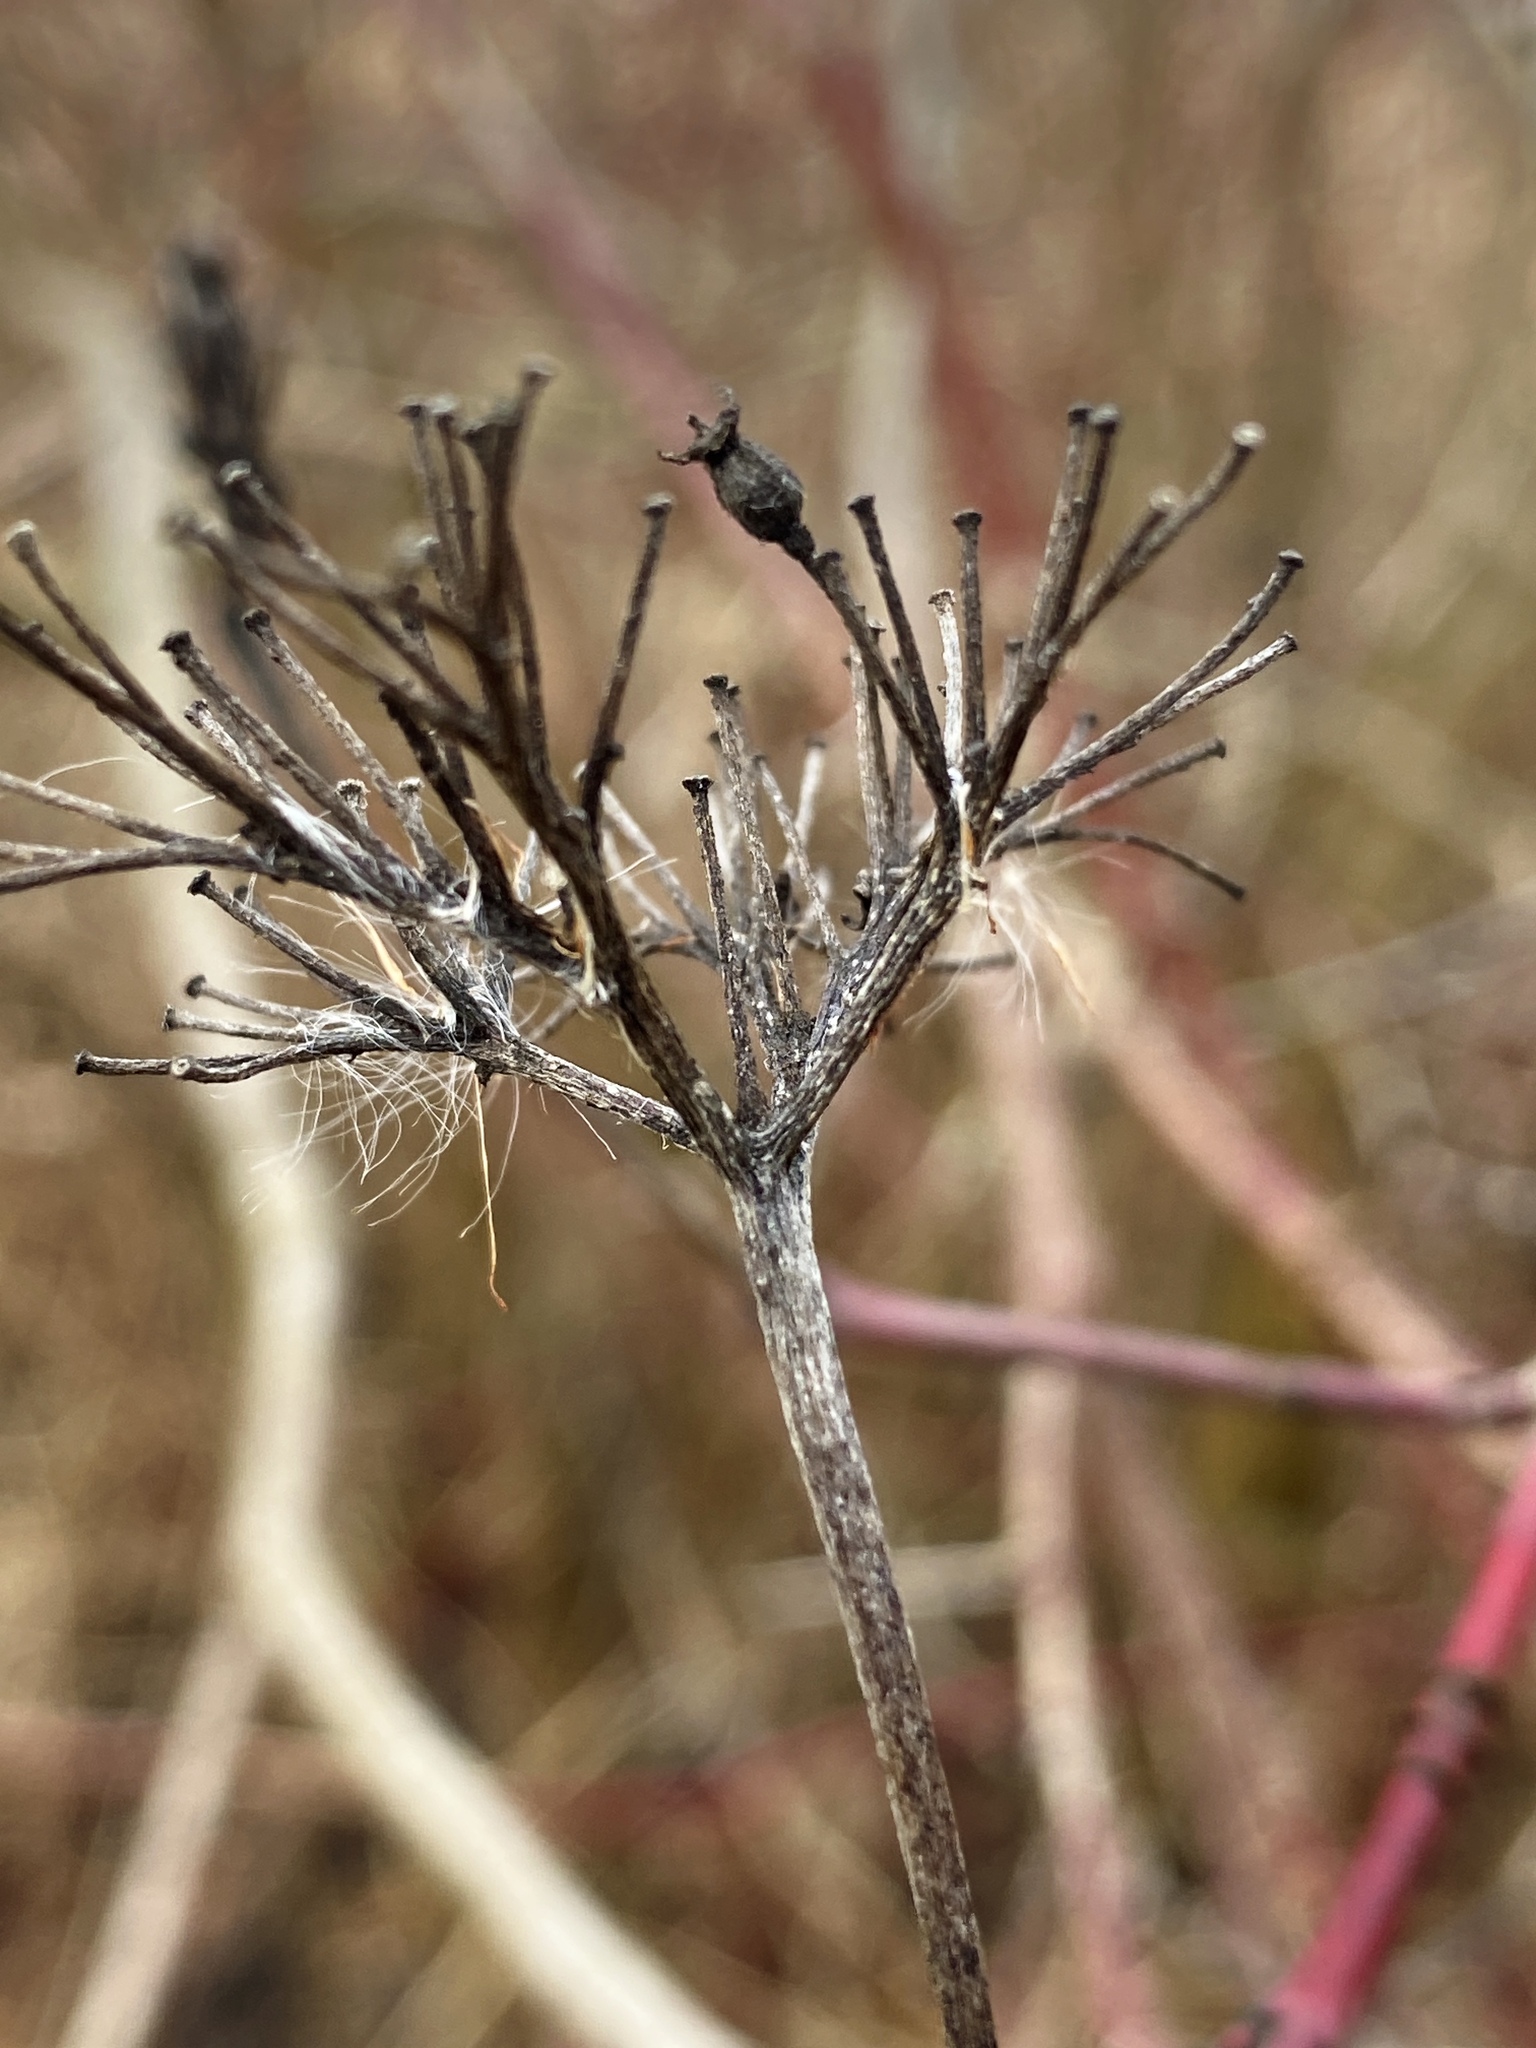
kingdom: Plantae
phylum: Tracheophyta
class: Magnoliopsida
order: Cornales
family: Cornaceae
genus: Cornus
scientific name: Cornus amomum
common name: Silky dogwood
